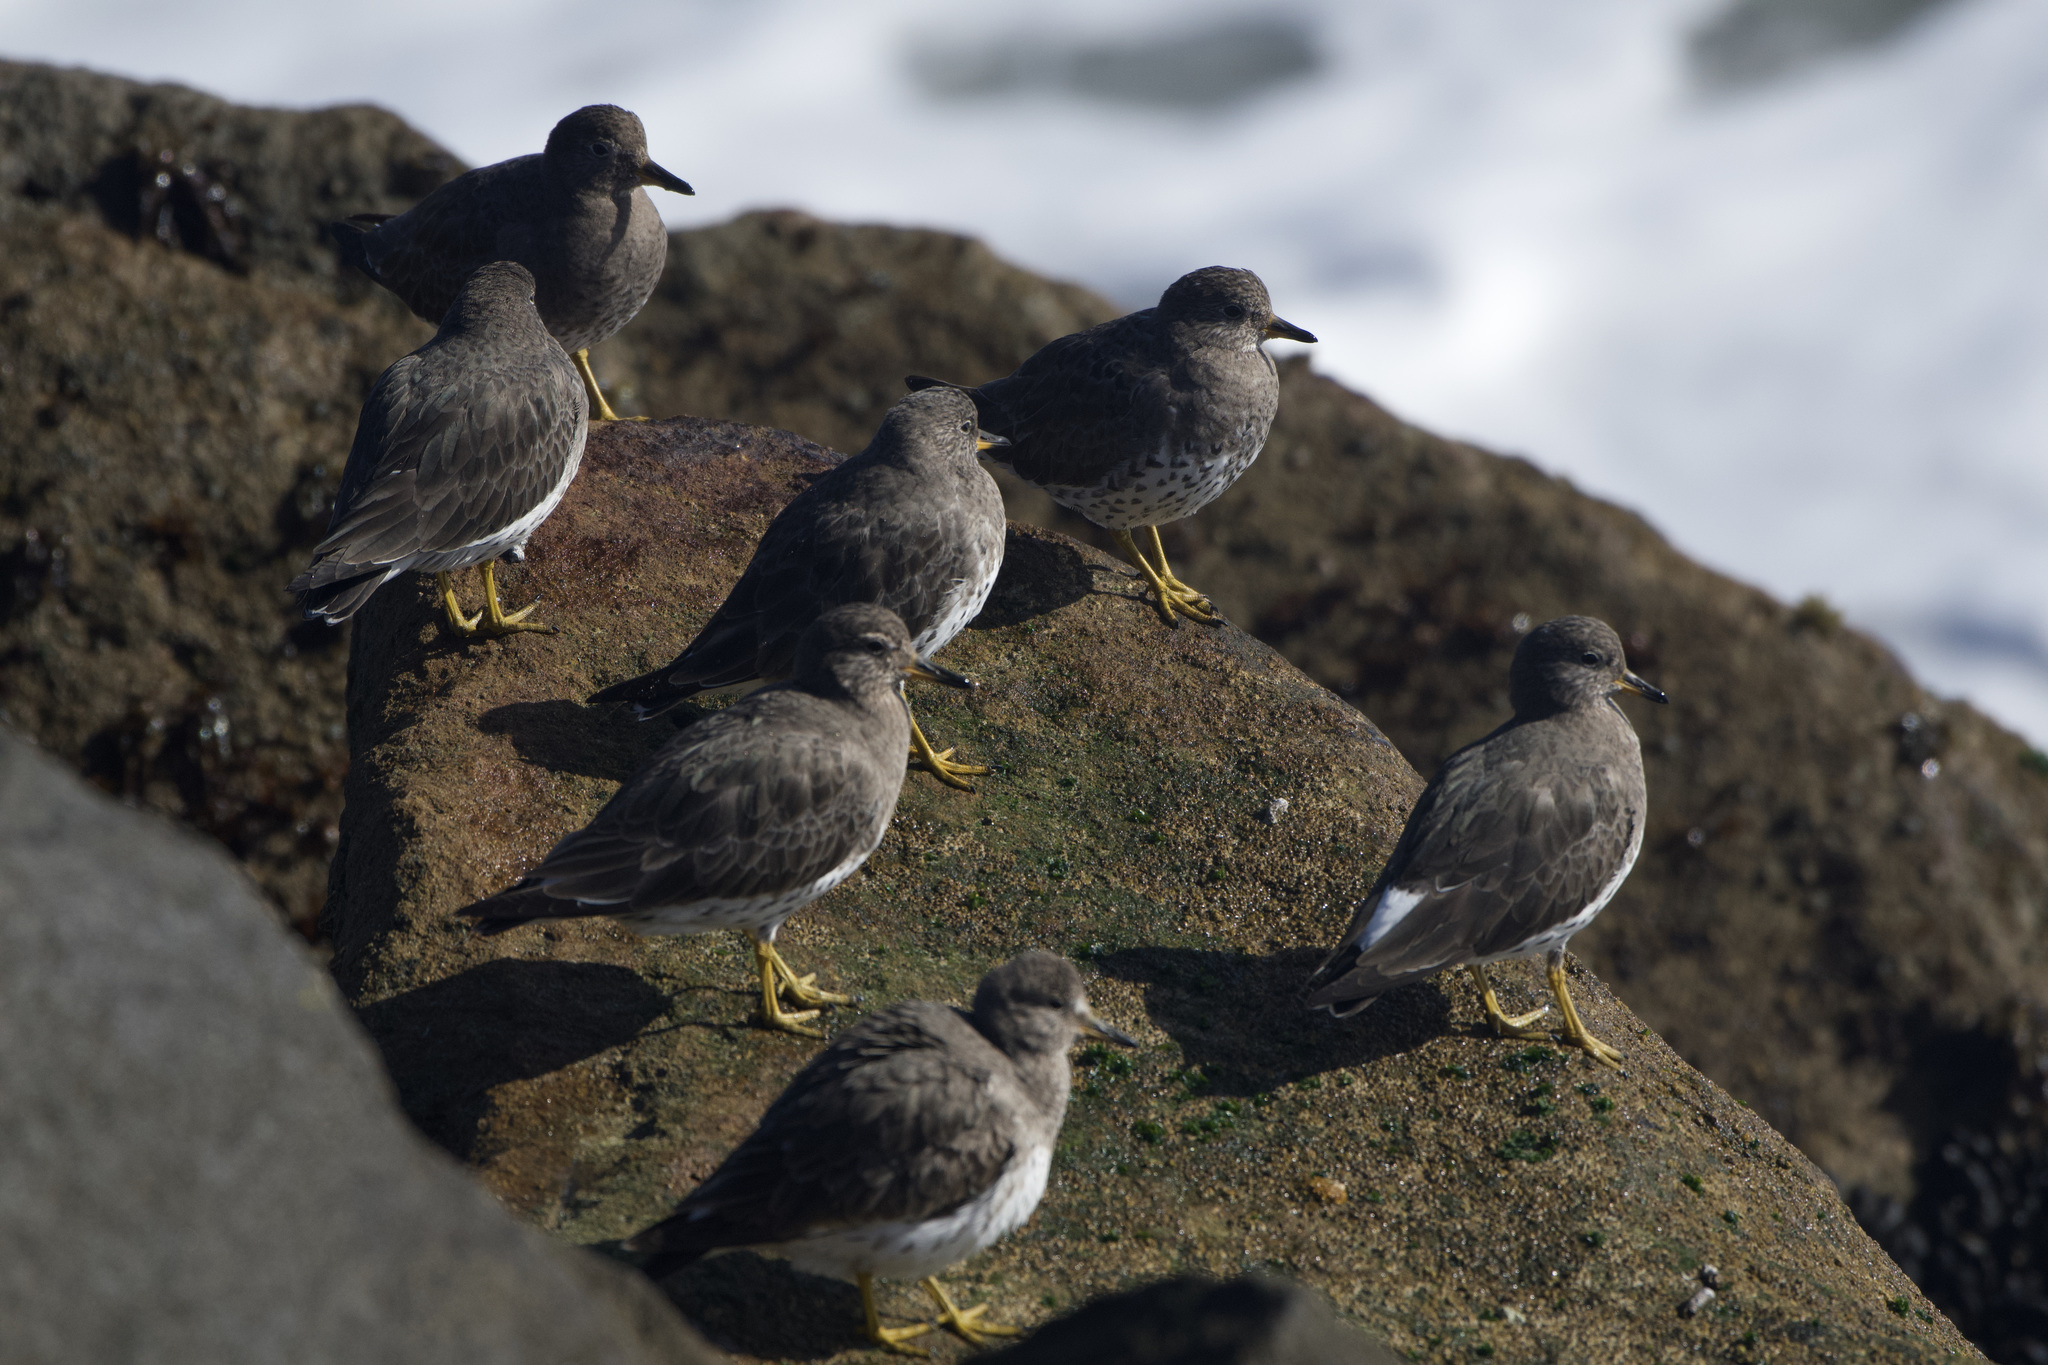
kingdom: Animalia
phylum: Chordata
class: Aves
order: Charadriiformes
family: Scolopacidae
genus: Calidris
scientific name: Calidris virgata
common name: Surfbird
